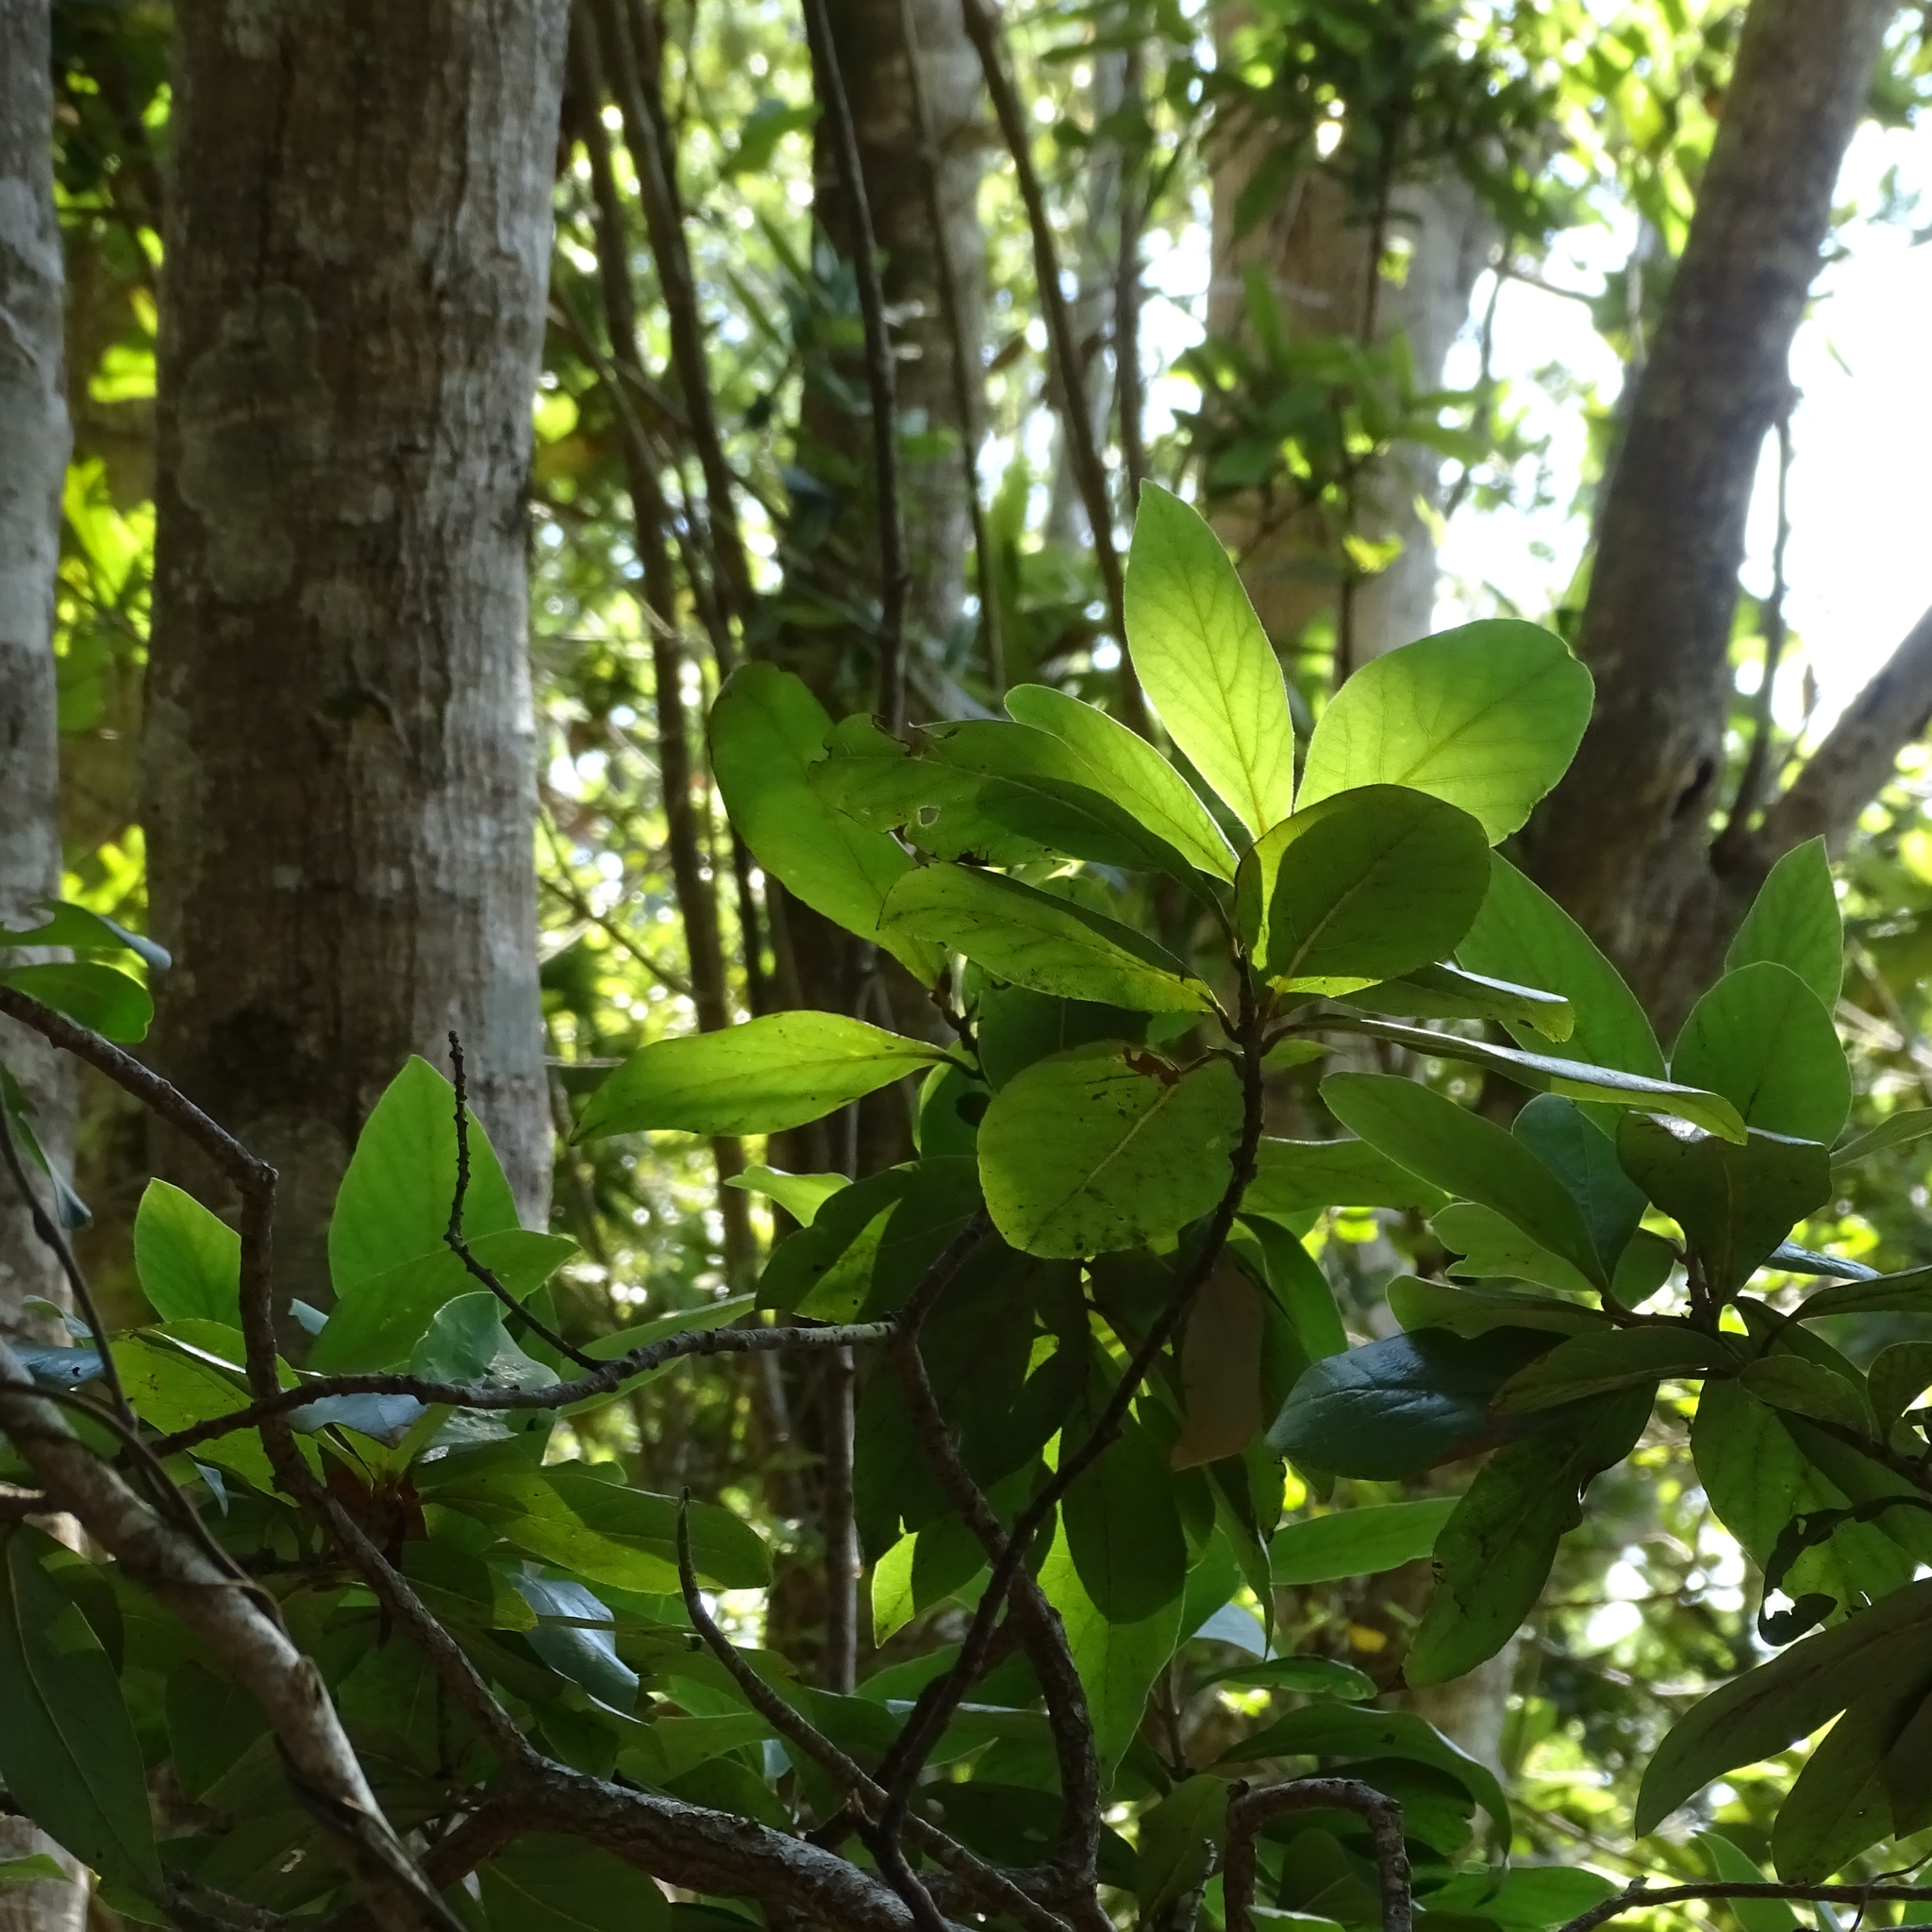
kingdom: Plantae
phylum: Tracheophyta
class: Magnoliopsida
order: Laurales
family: Lauraceae
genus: Persea
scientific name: Persea lingue
